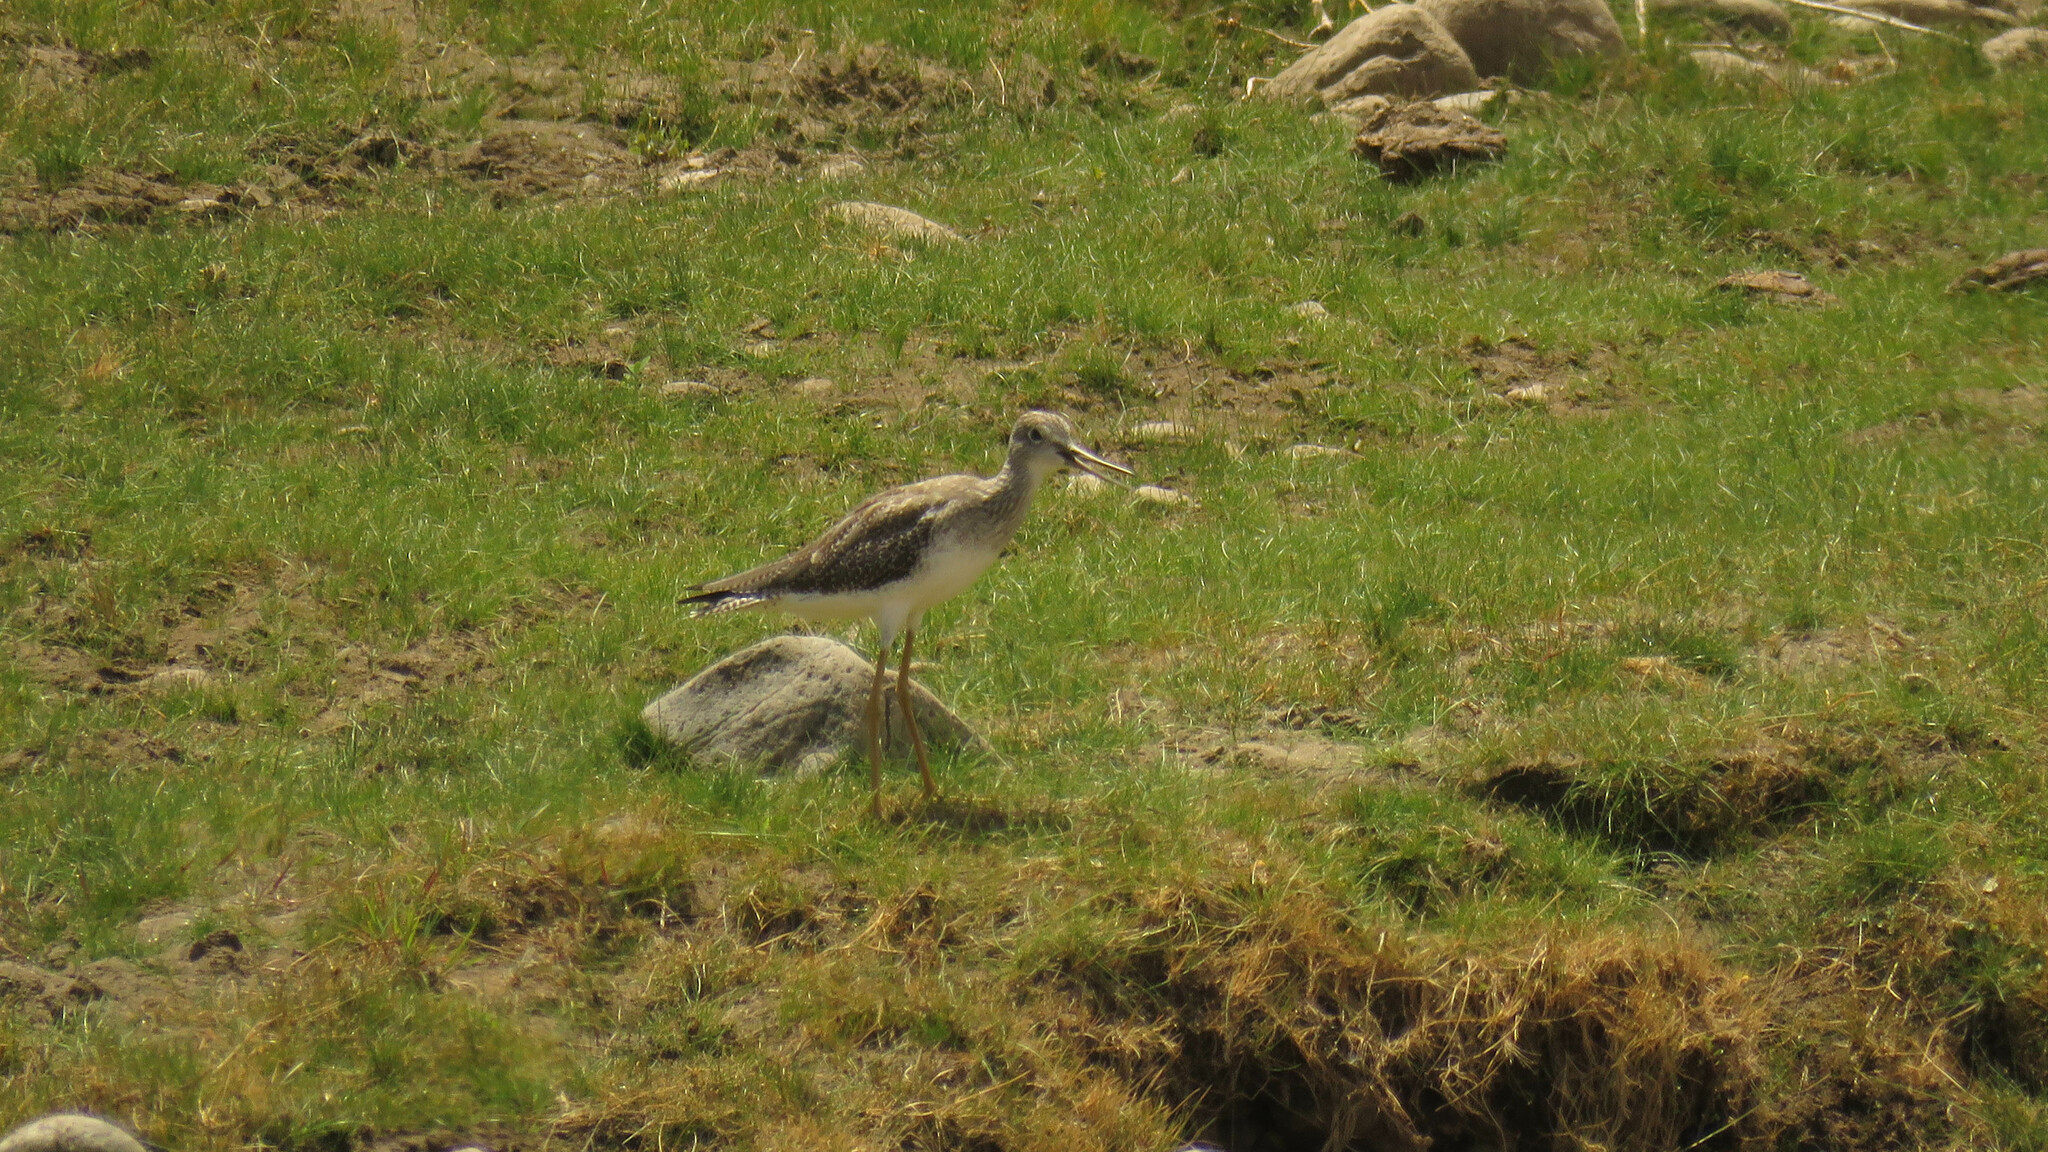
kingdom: Animalia
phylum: Chordata
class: Aves
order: Charadriiformes
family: Scolopacidae
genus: Tringa
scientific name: Tringa melanoleuca
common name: Greater yellowlegs
